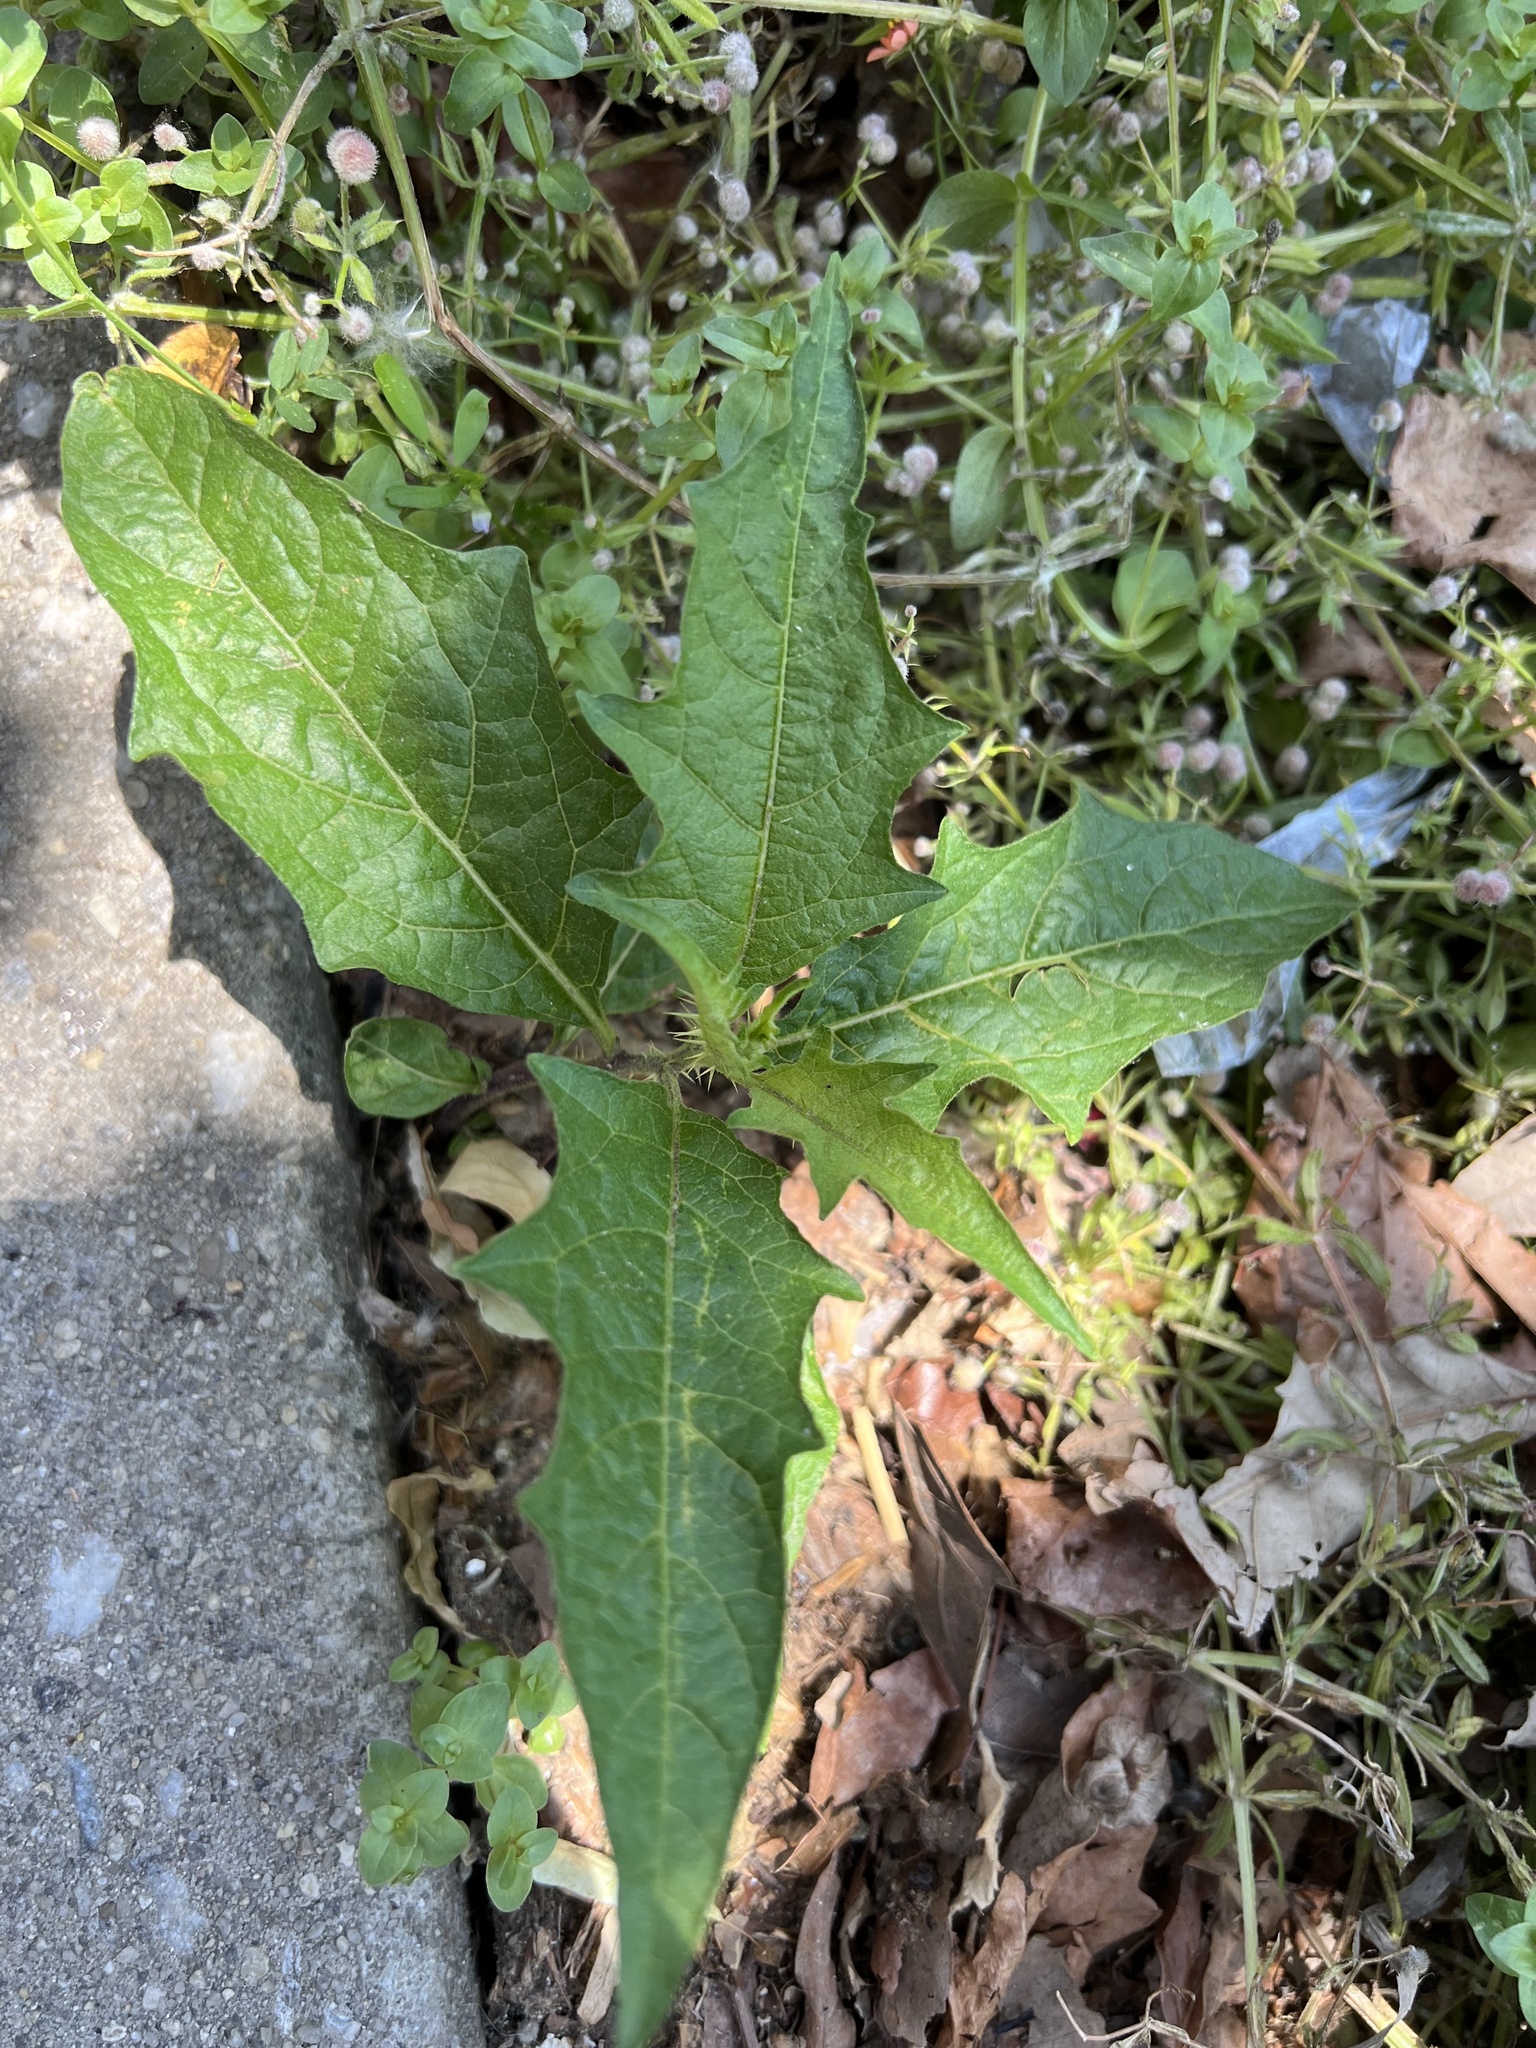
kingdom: Plantae
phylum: Tracheophyta
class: Magnoliopsida
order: Solanales
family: Solanaceae
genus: Solanum
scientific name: Solanum carolinense
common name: Horse-nettle
